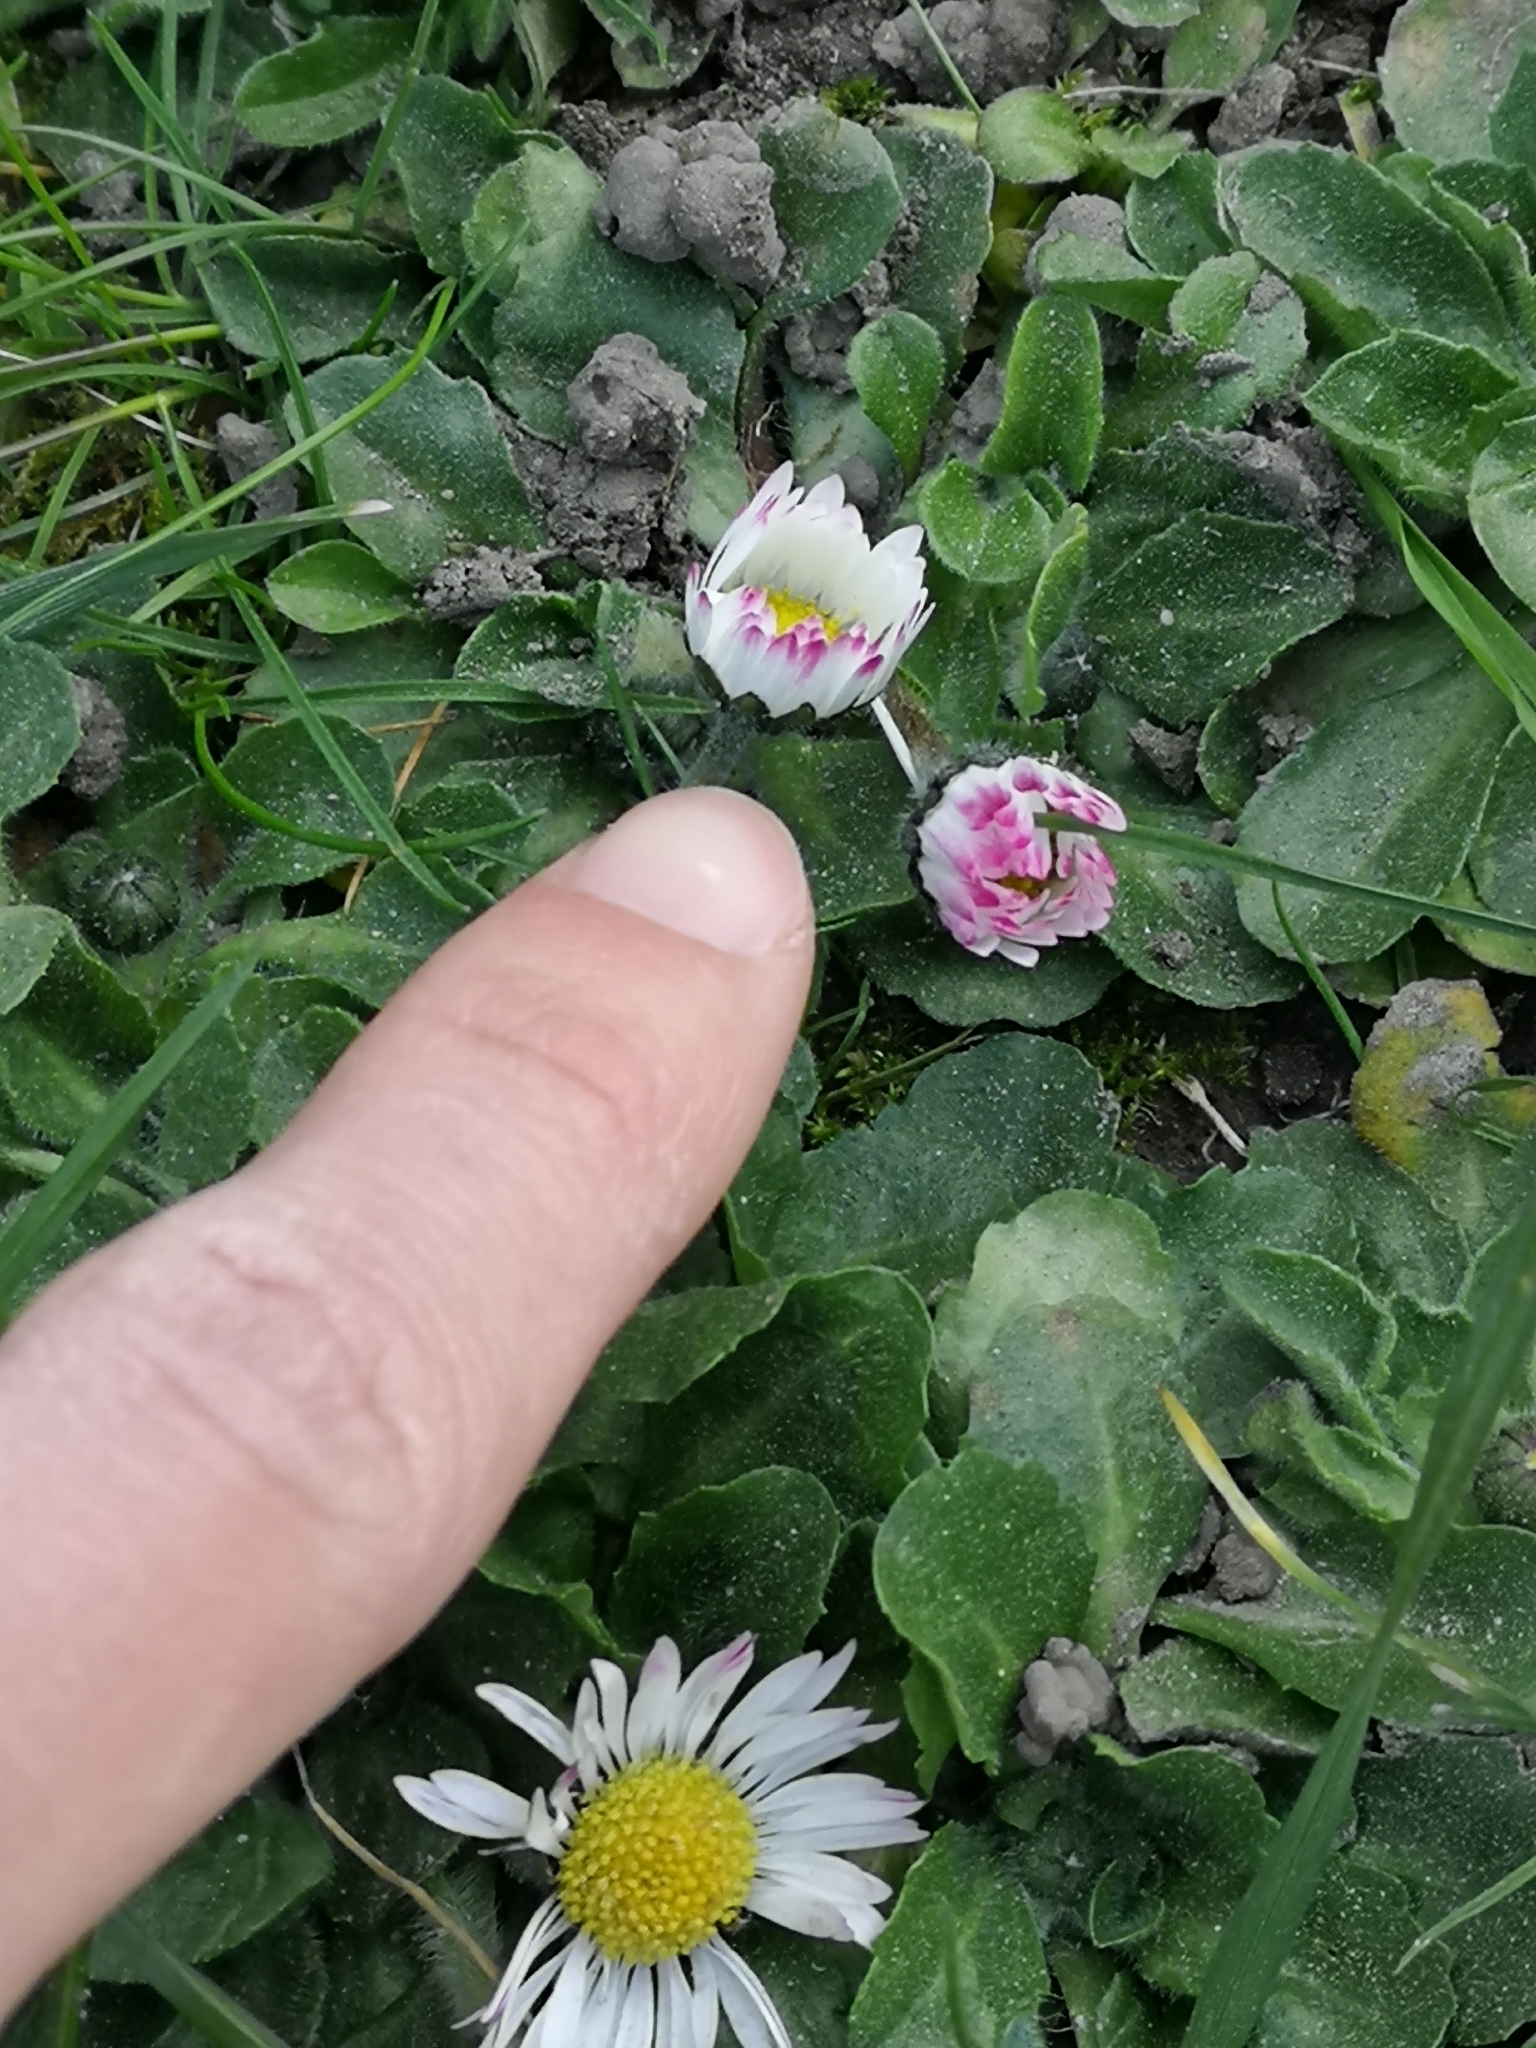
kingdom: Plantae
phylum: Tracheophyta
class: Magnoliopsida
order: Asterales
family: Asteraceae
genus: Bellis
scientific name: Bellis perennis
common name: Lawndaisy
